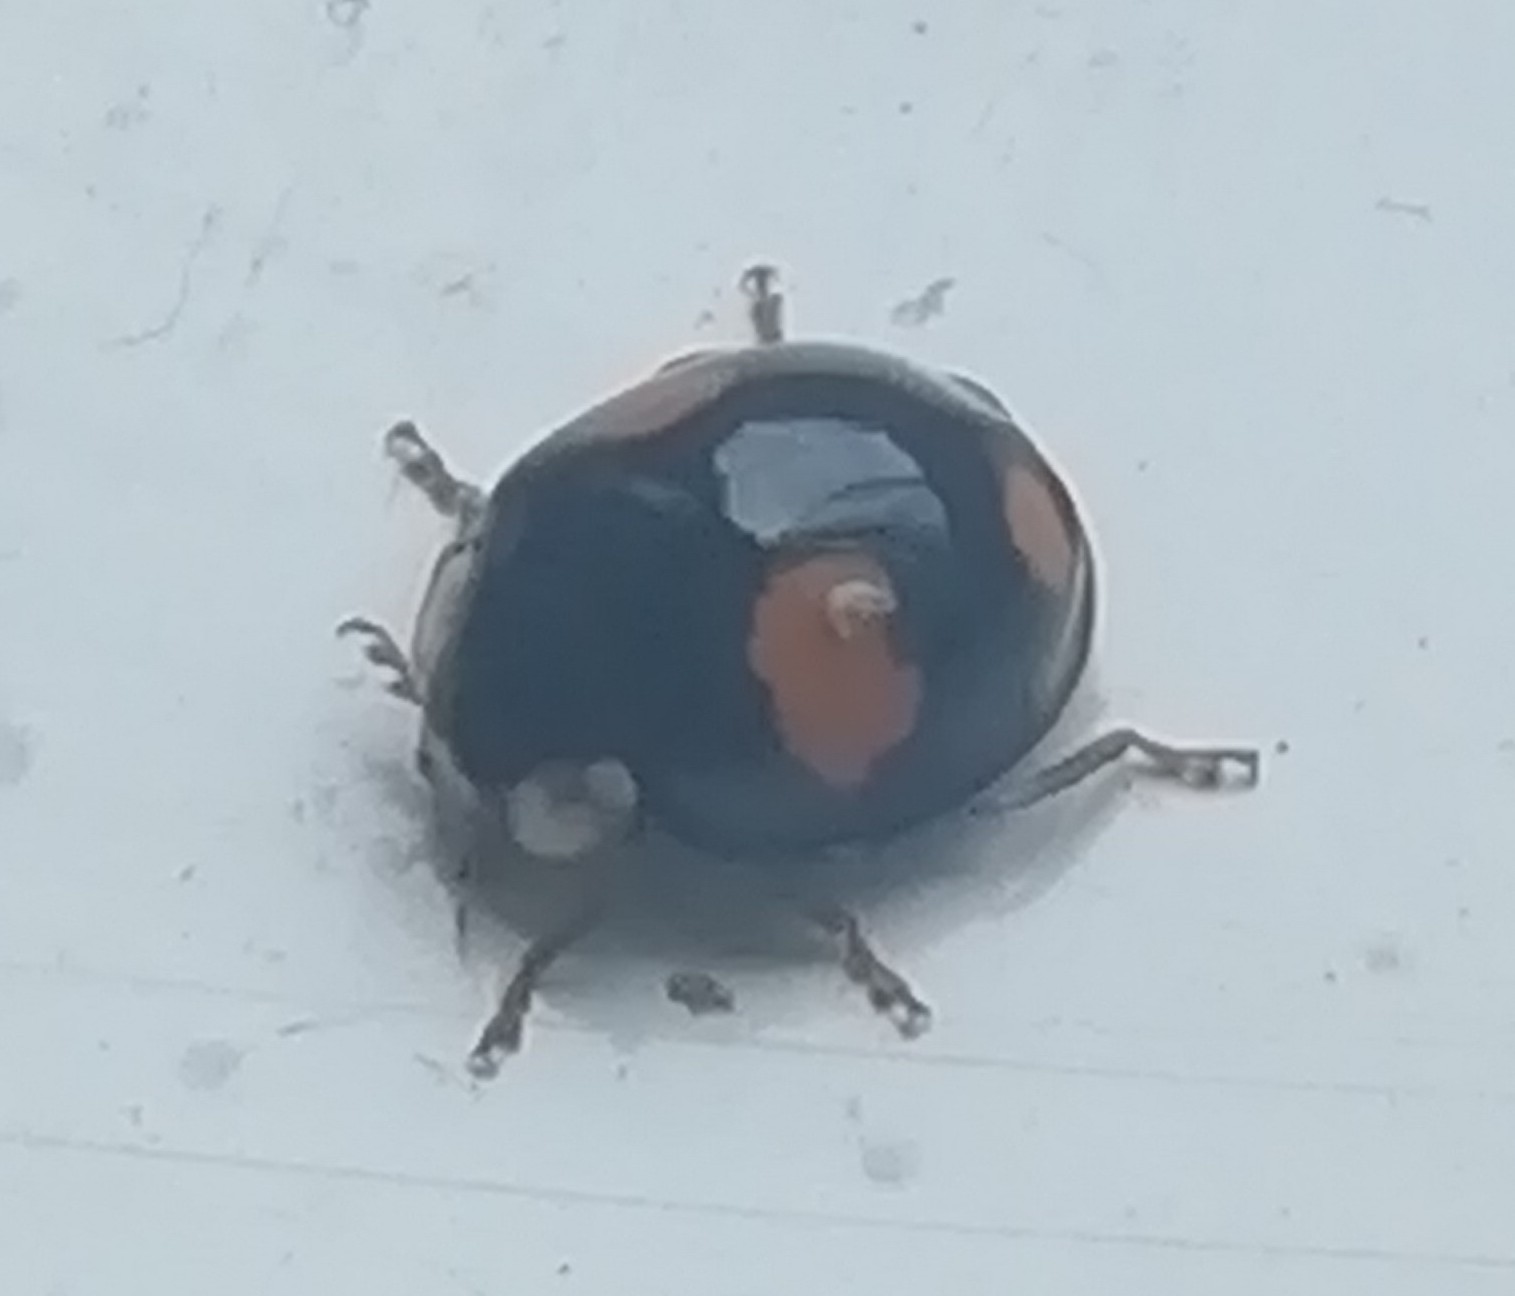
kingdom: Animalia
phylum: Arthropoda
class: Insecta
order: Coleoptera
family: Coccinellidae
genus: Harmonia
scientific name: Harmonia axyridis
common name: Harlequin ladybird
